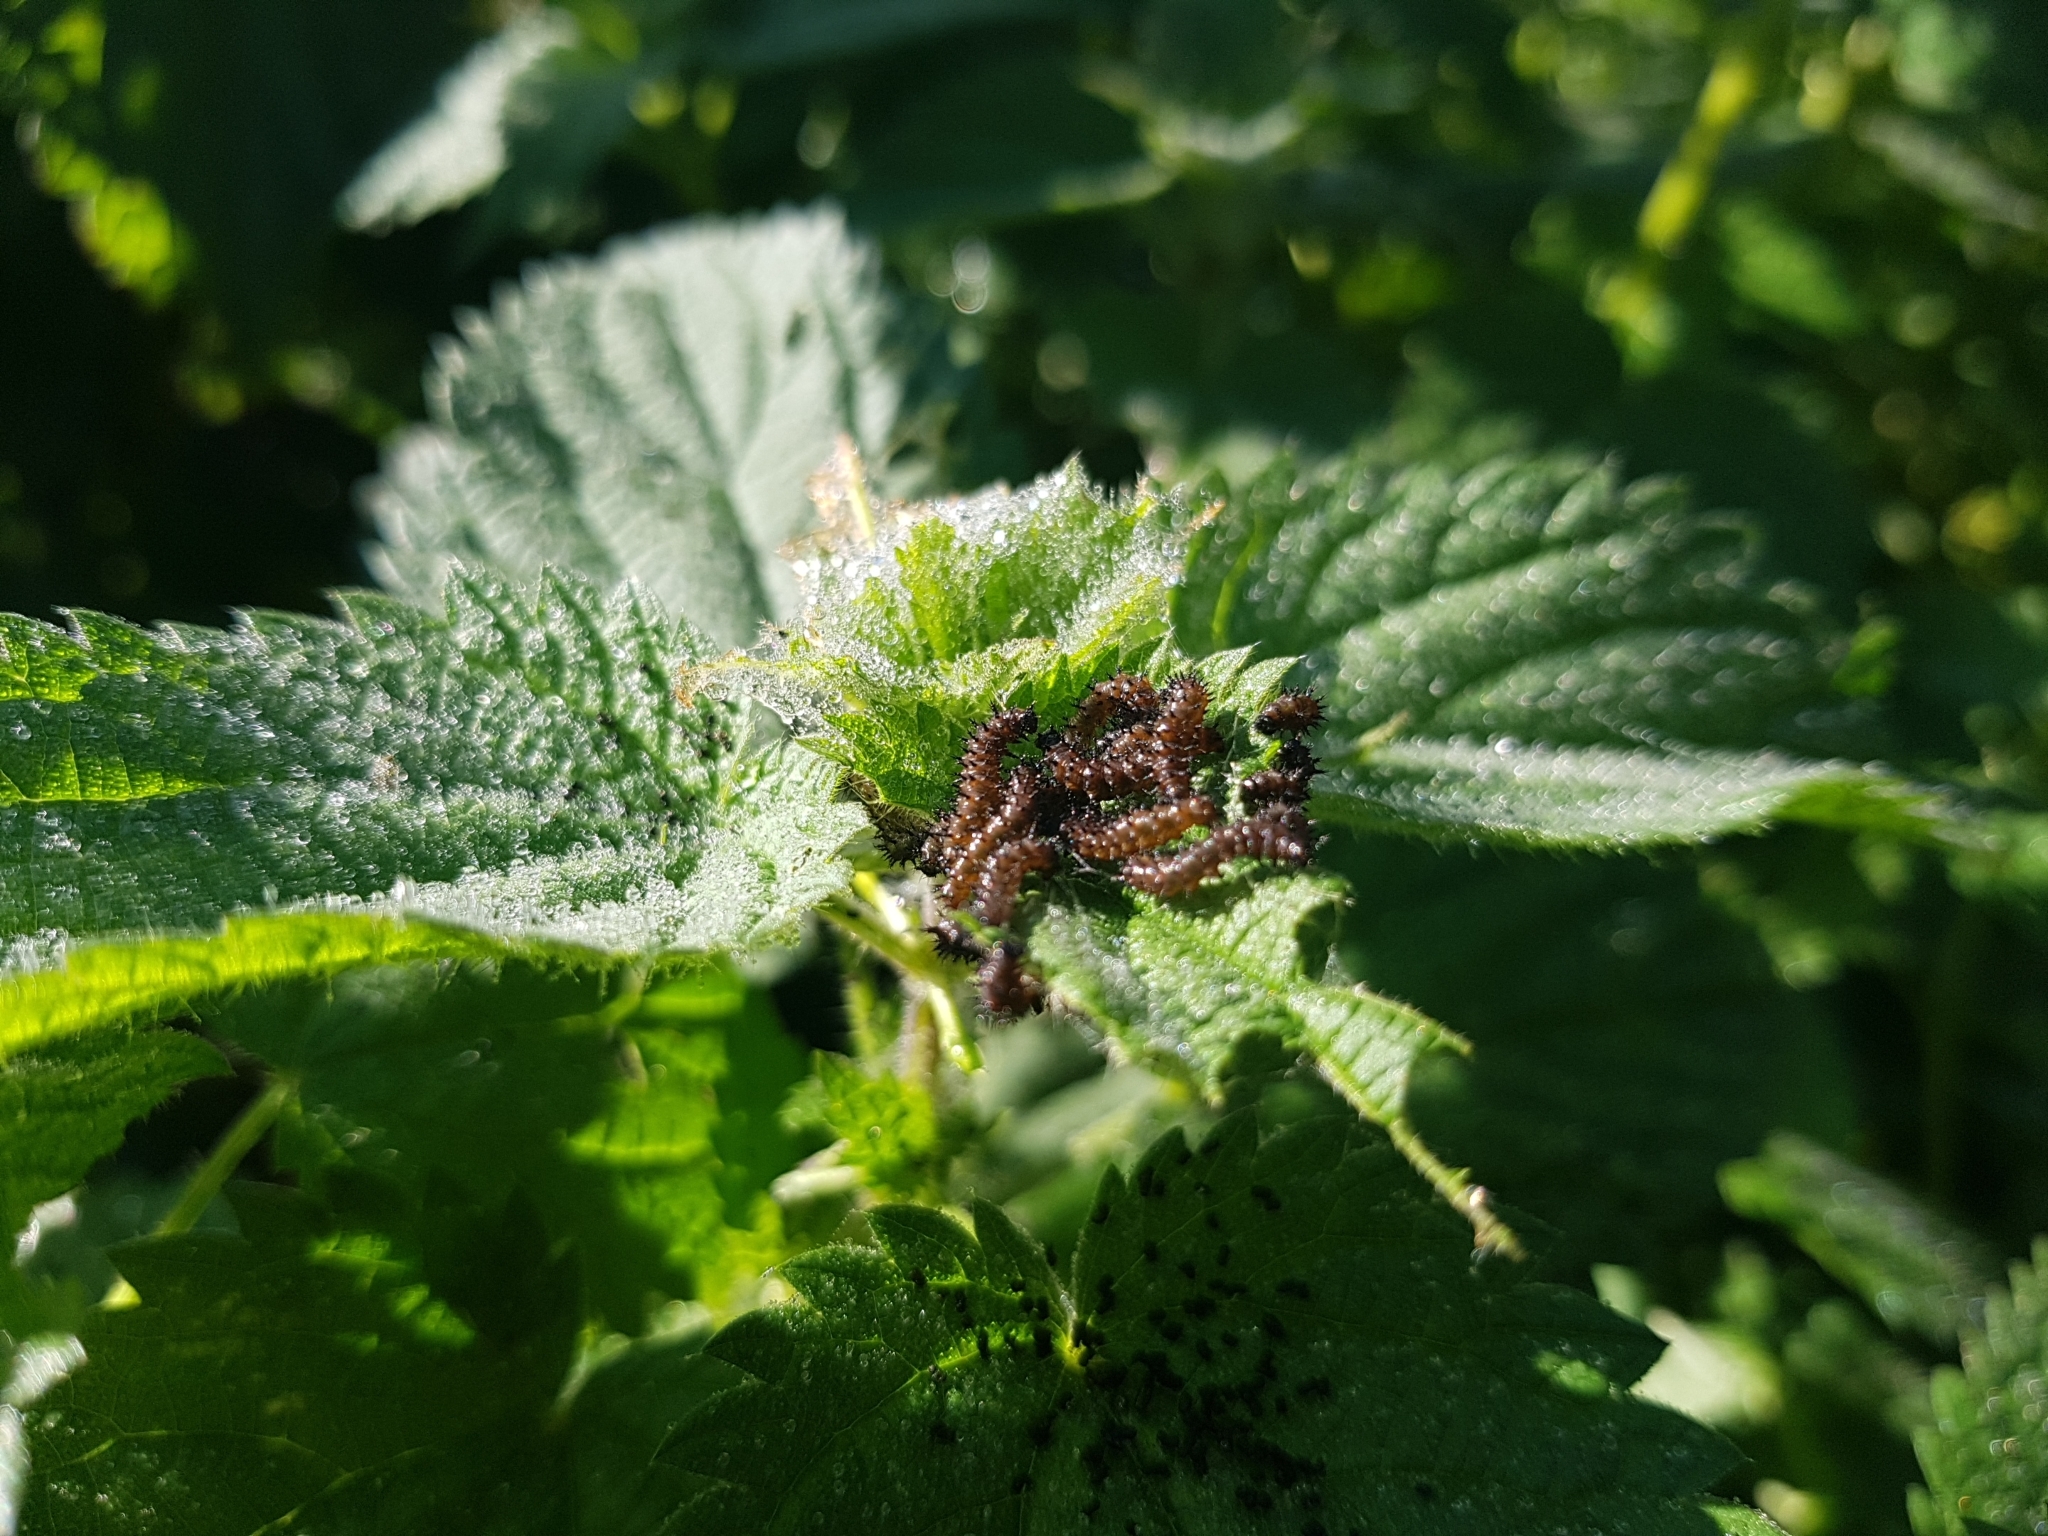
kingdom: Animalia
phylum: Arthropoda
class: Insecta
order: Lepidoptera
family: Nymphalidae
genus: Araschnia
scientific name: Araschnia levana
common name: Map butterfly
